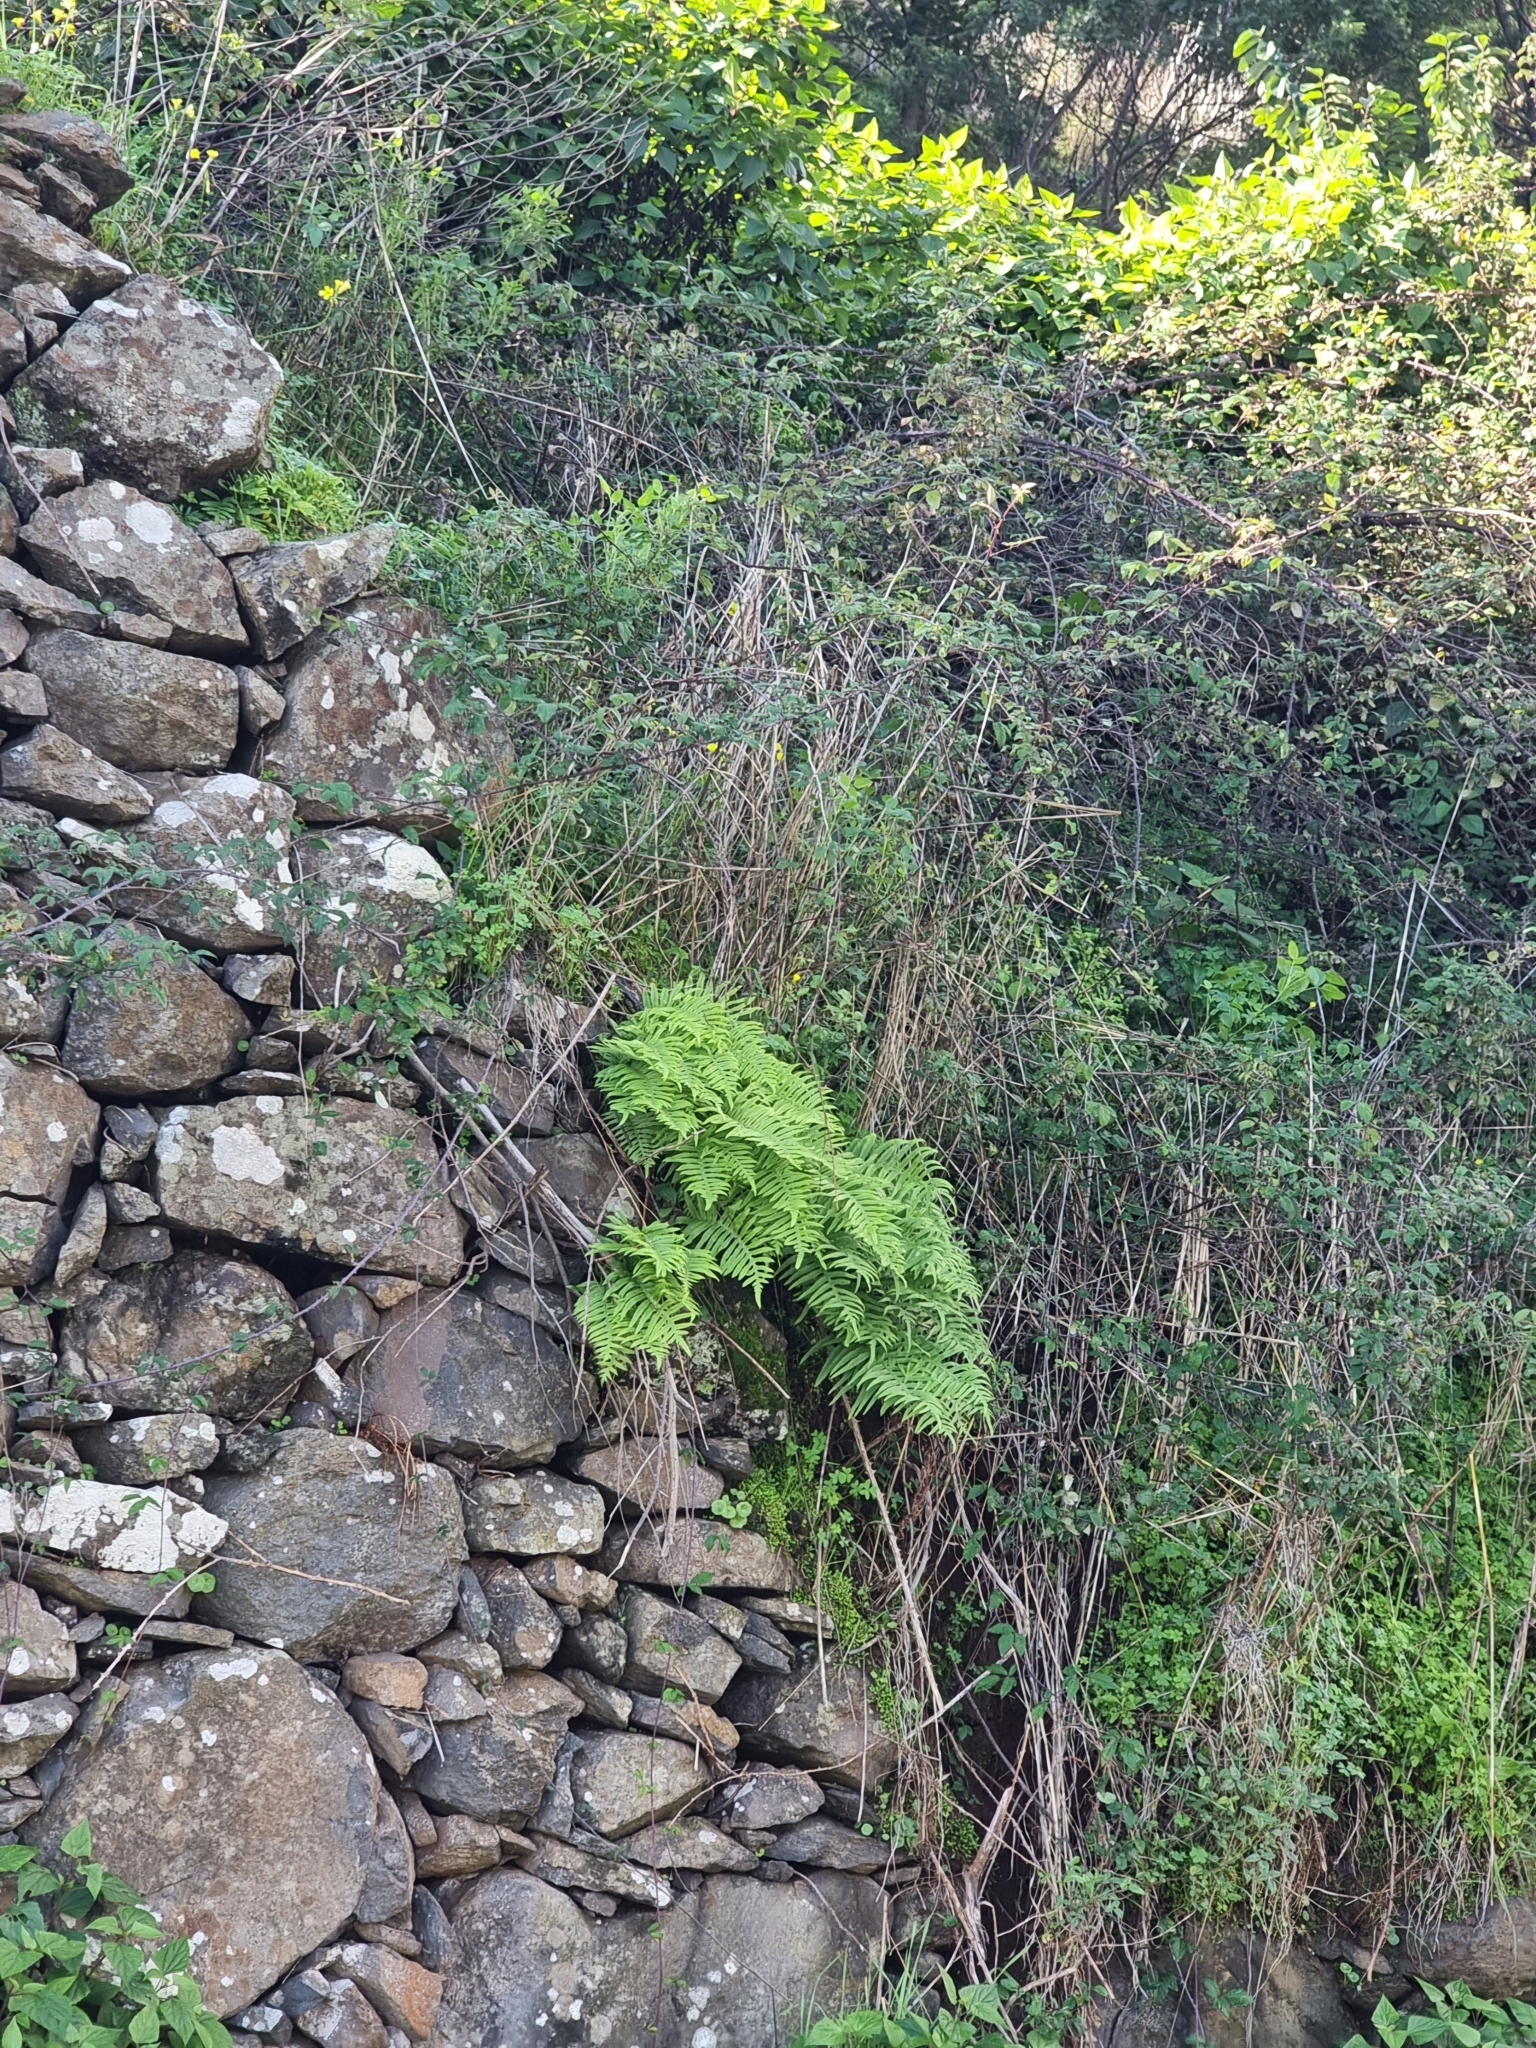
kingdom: Plantae
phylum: Tracheophyta
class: Polypodiopsida
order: Polypodiales
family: Polypodiaceae
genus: Polypodium
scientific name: Polypodium macaronesicum
